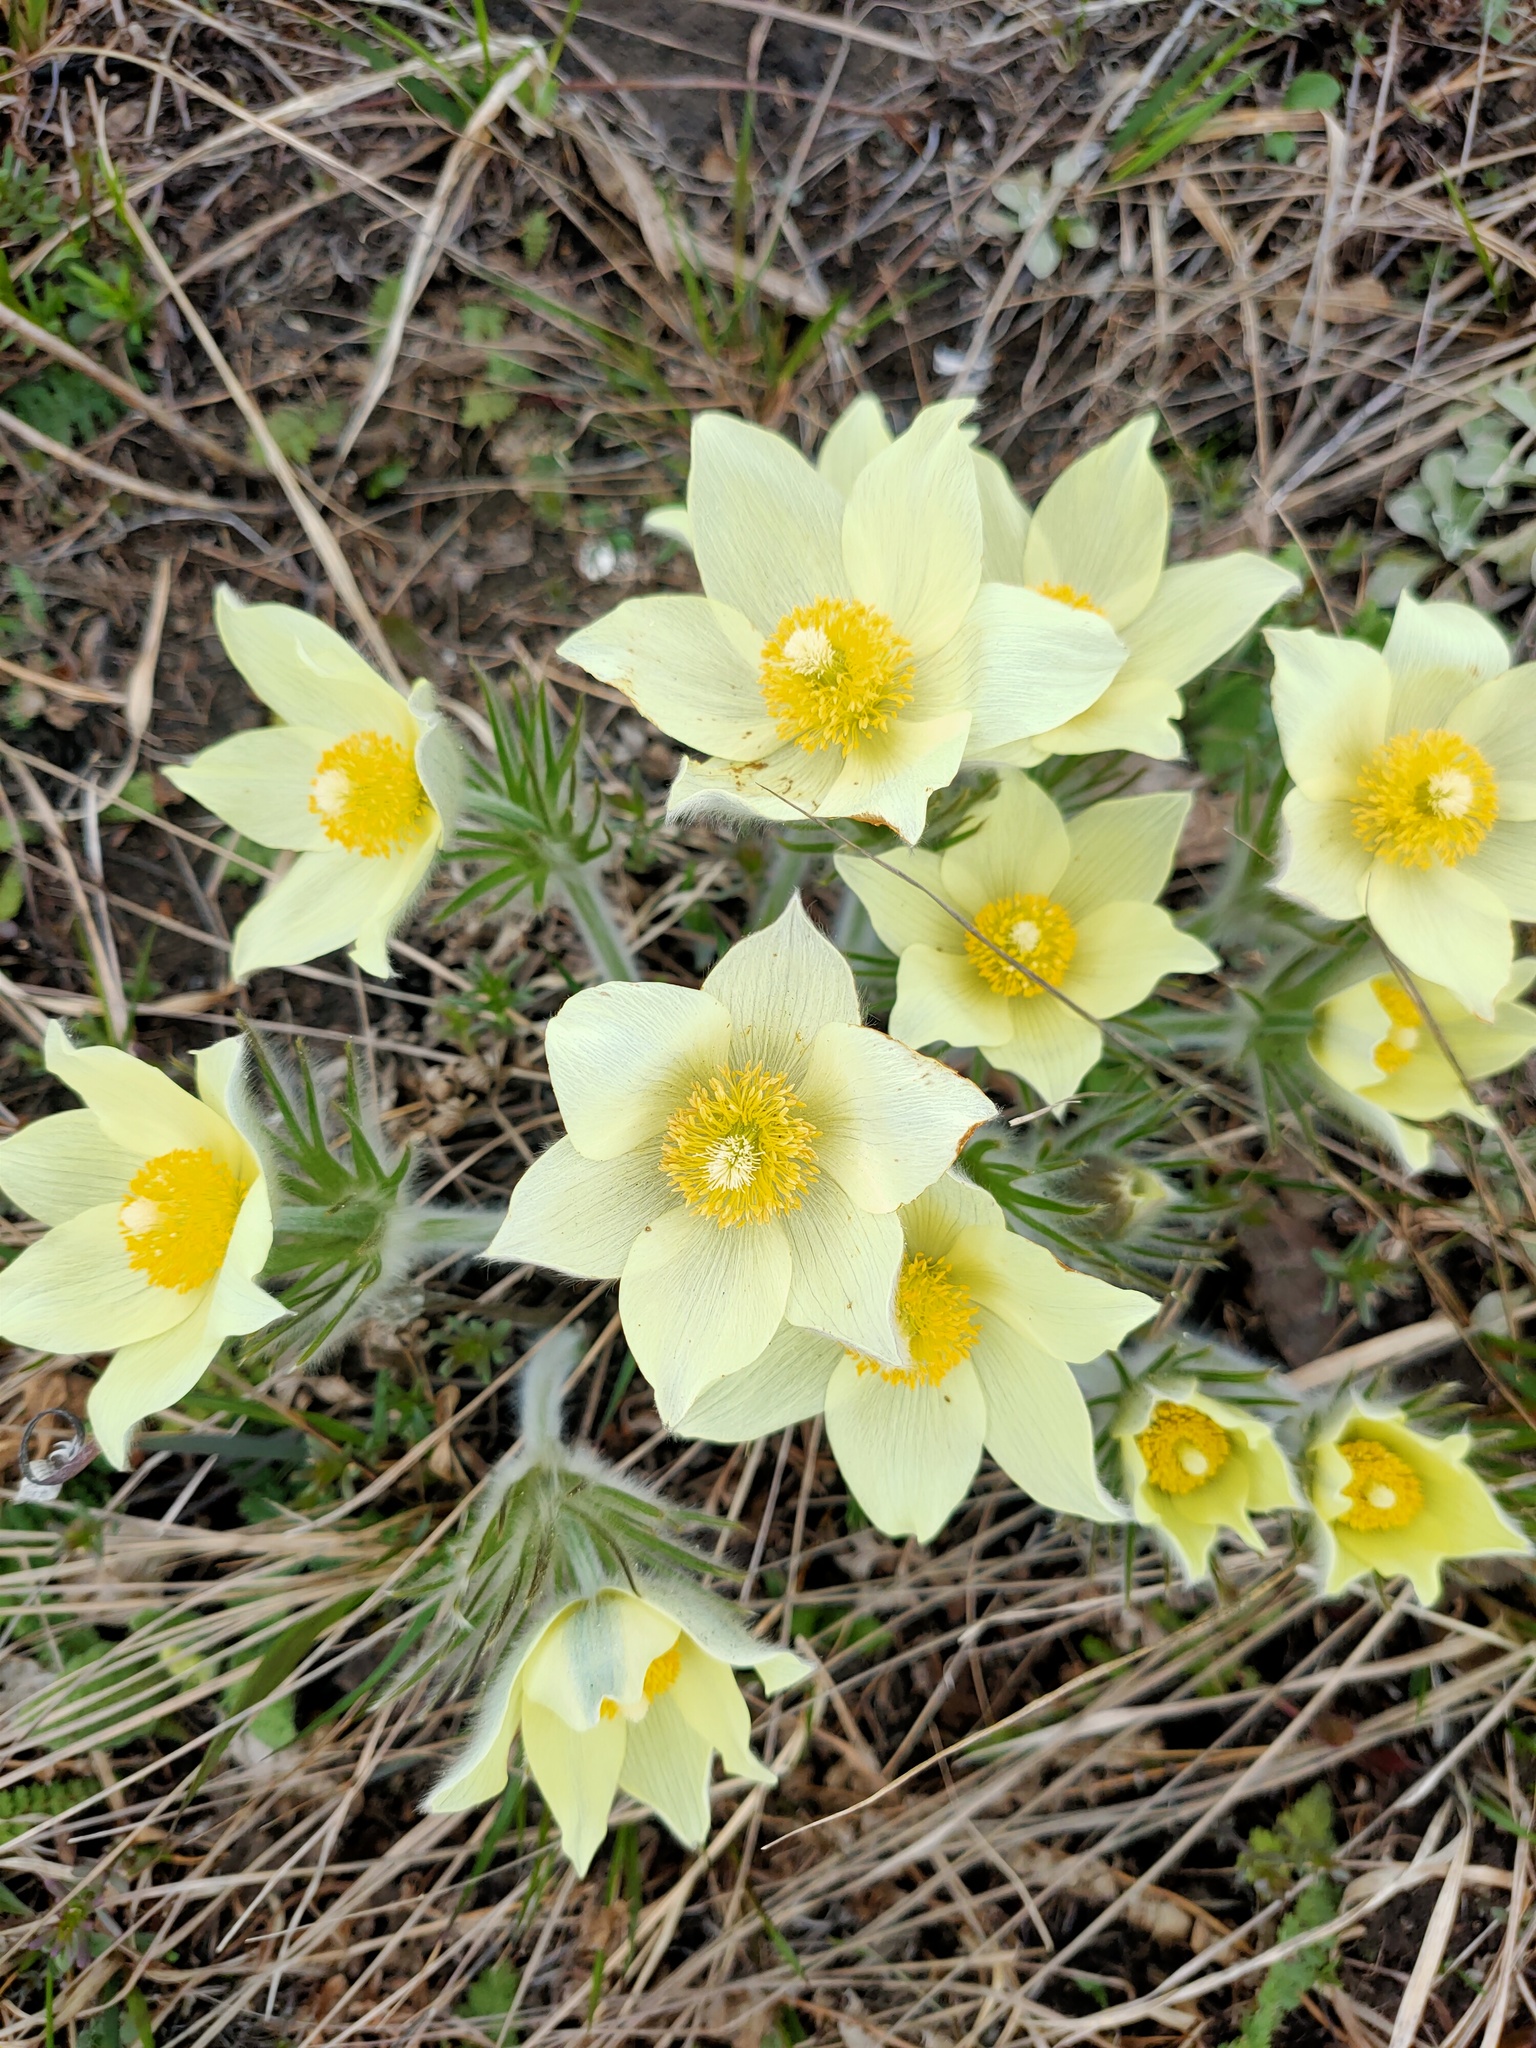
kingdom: Plantae
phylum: Tracheophyta
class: Magnoliopsida
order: Ranunculales
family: Ranunculaceae
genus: Pulsatilla
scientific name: Pulsatilla patens
